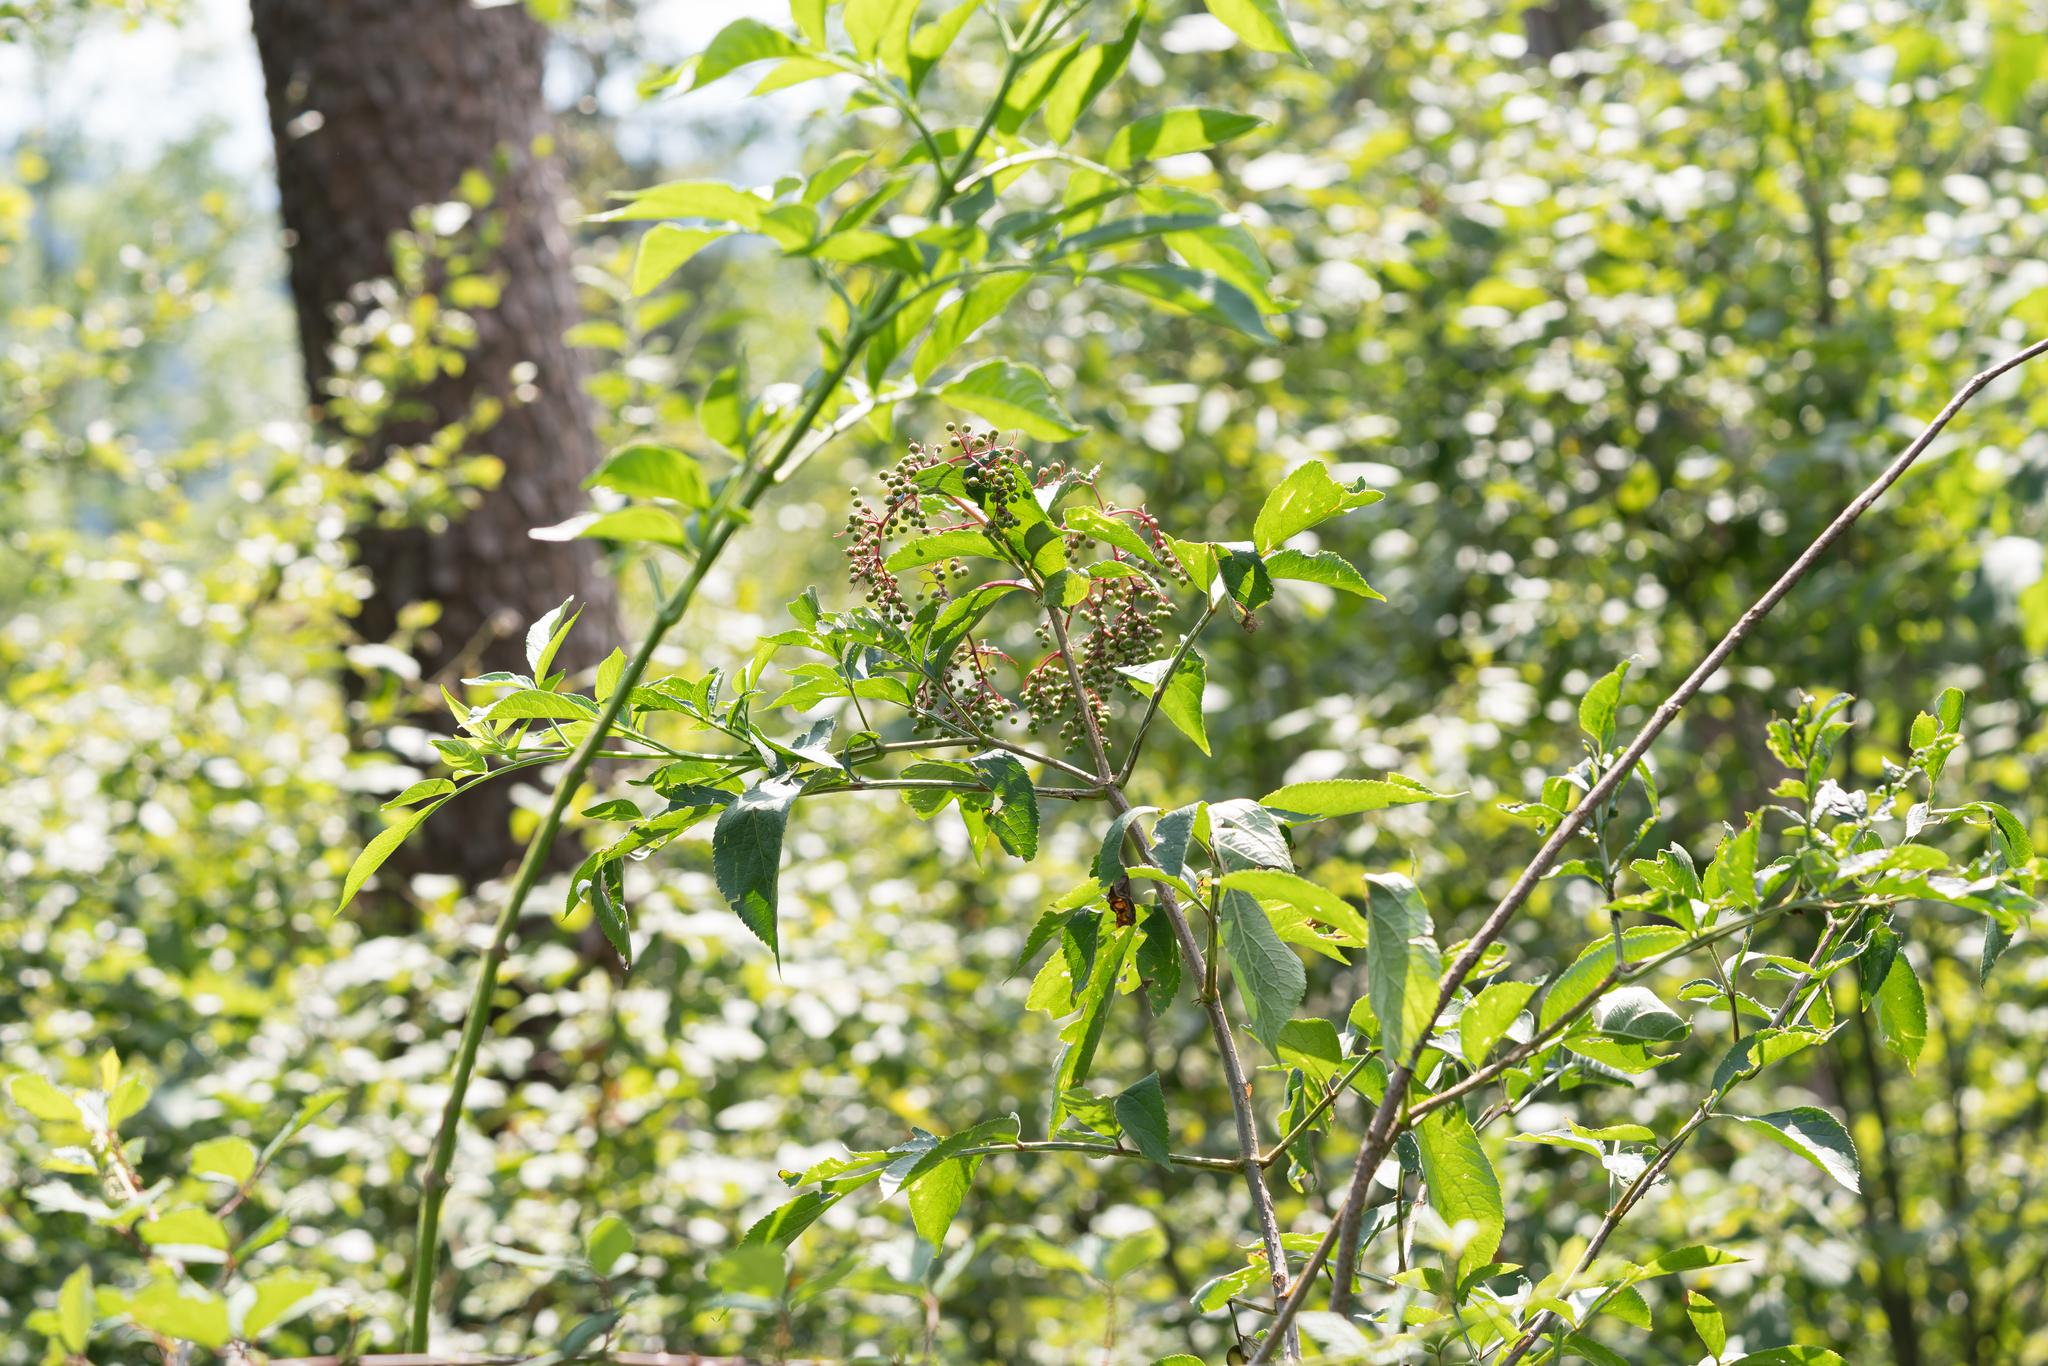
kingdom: Plantae
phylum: Tracheophyta
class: Magnoliopsida
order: Dipsacales
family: Viburnaceae
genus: Sambucus
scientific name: Sambucus nigra
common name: Elder
